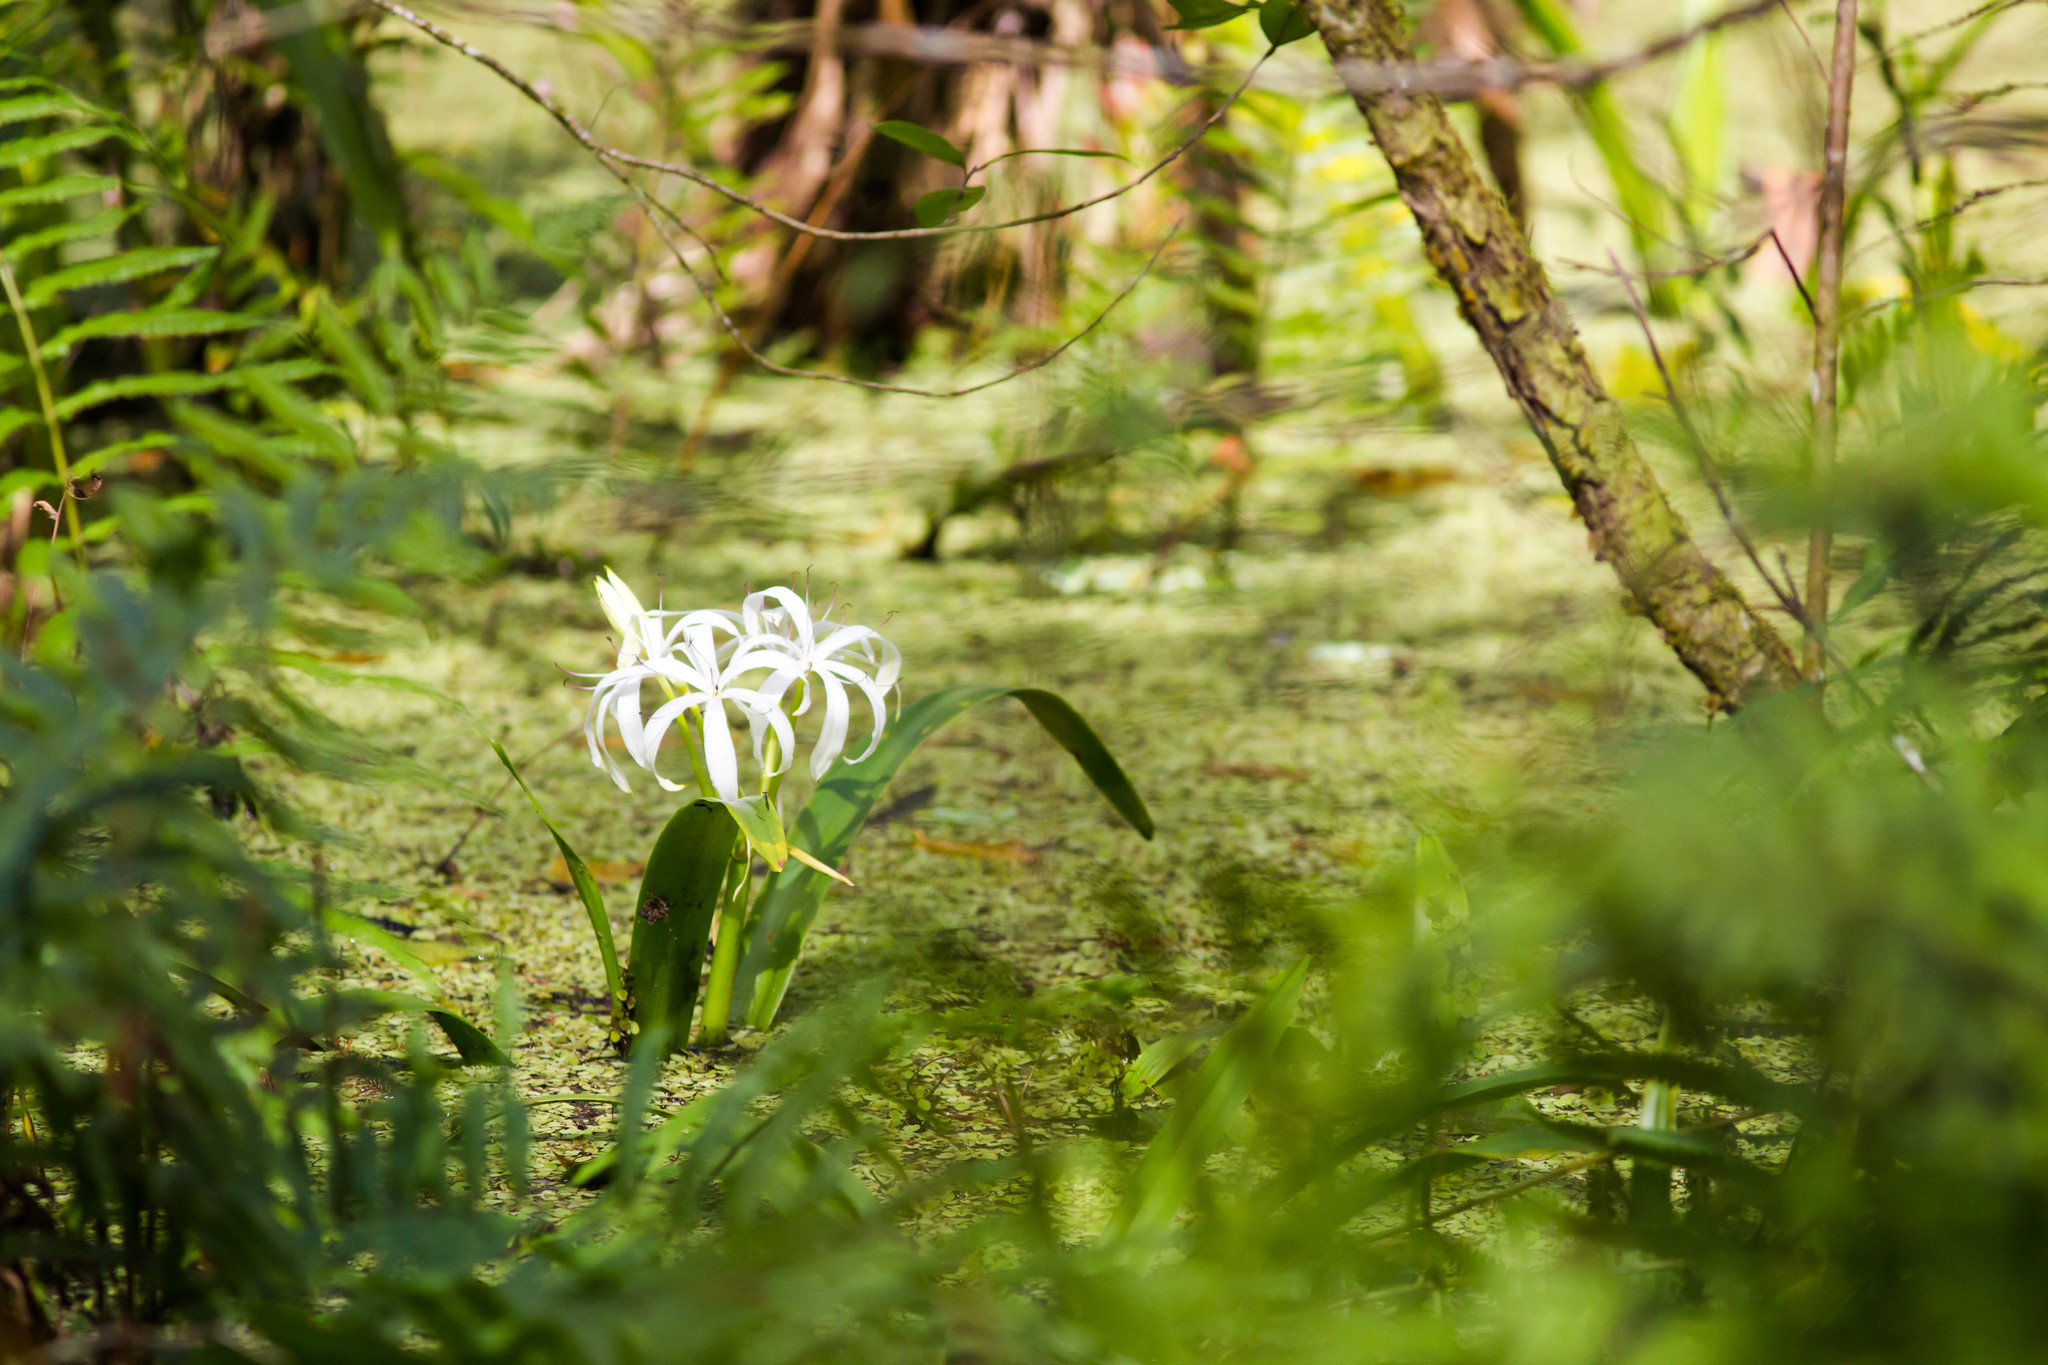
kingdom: Plantae
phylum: Tracheophyta
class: Liliopsida
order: Asparagales
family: Amaryllidaceae
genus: Crinum
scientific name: Crinum americanum
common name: Florida swamp-lily
